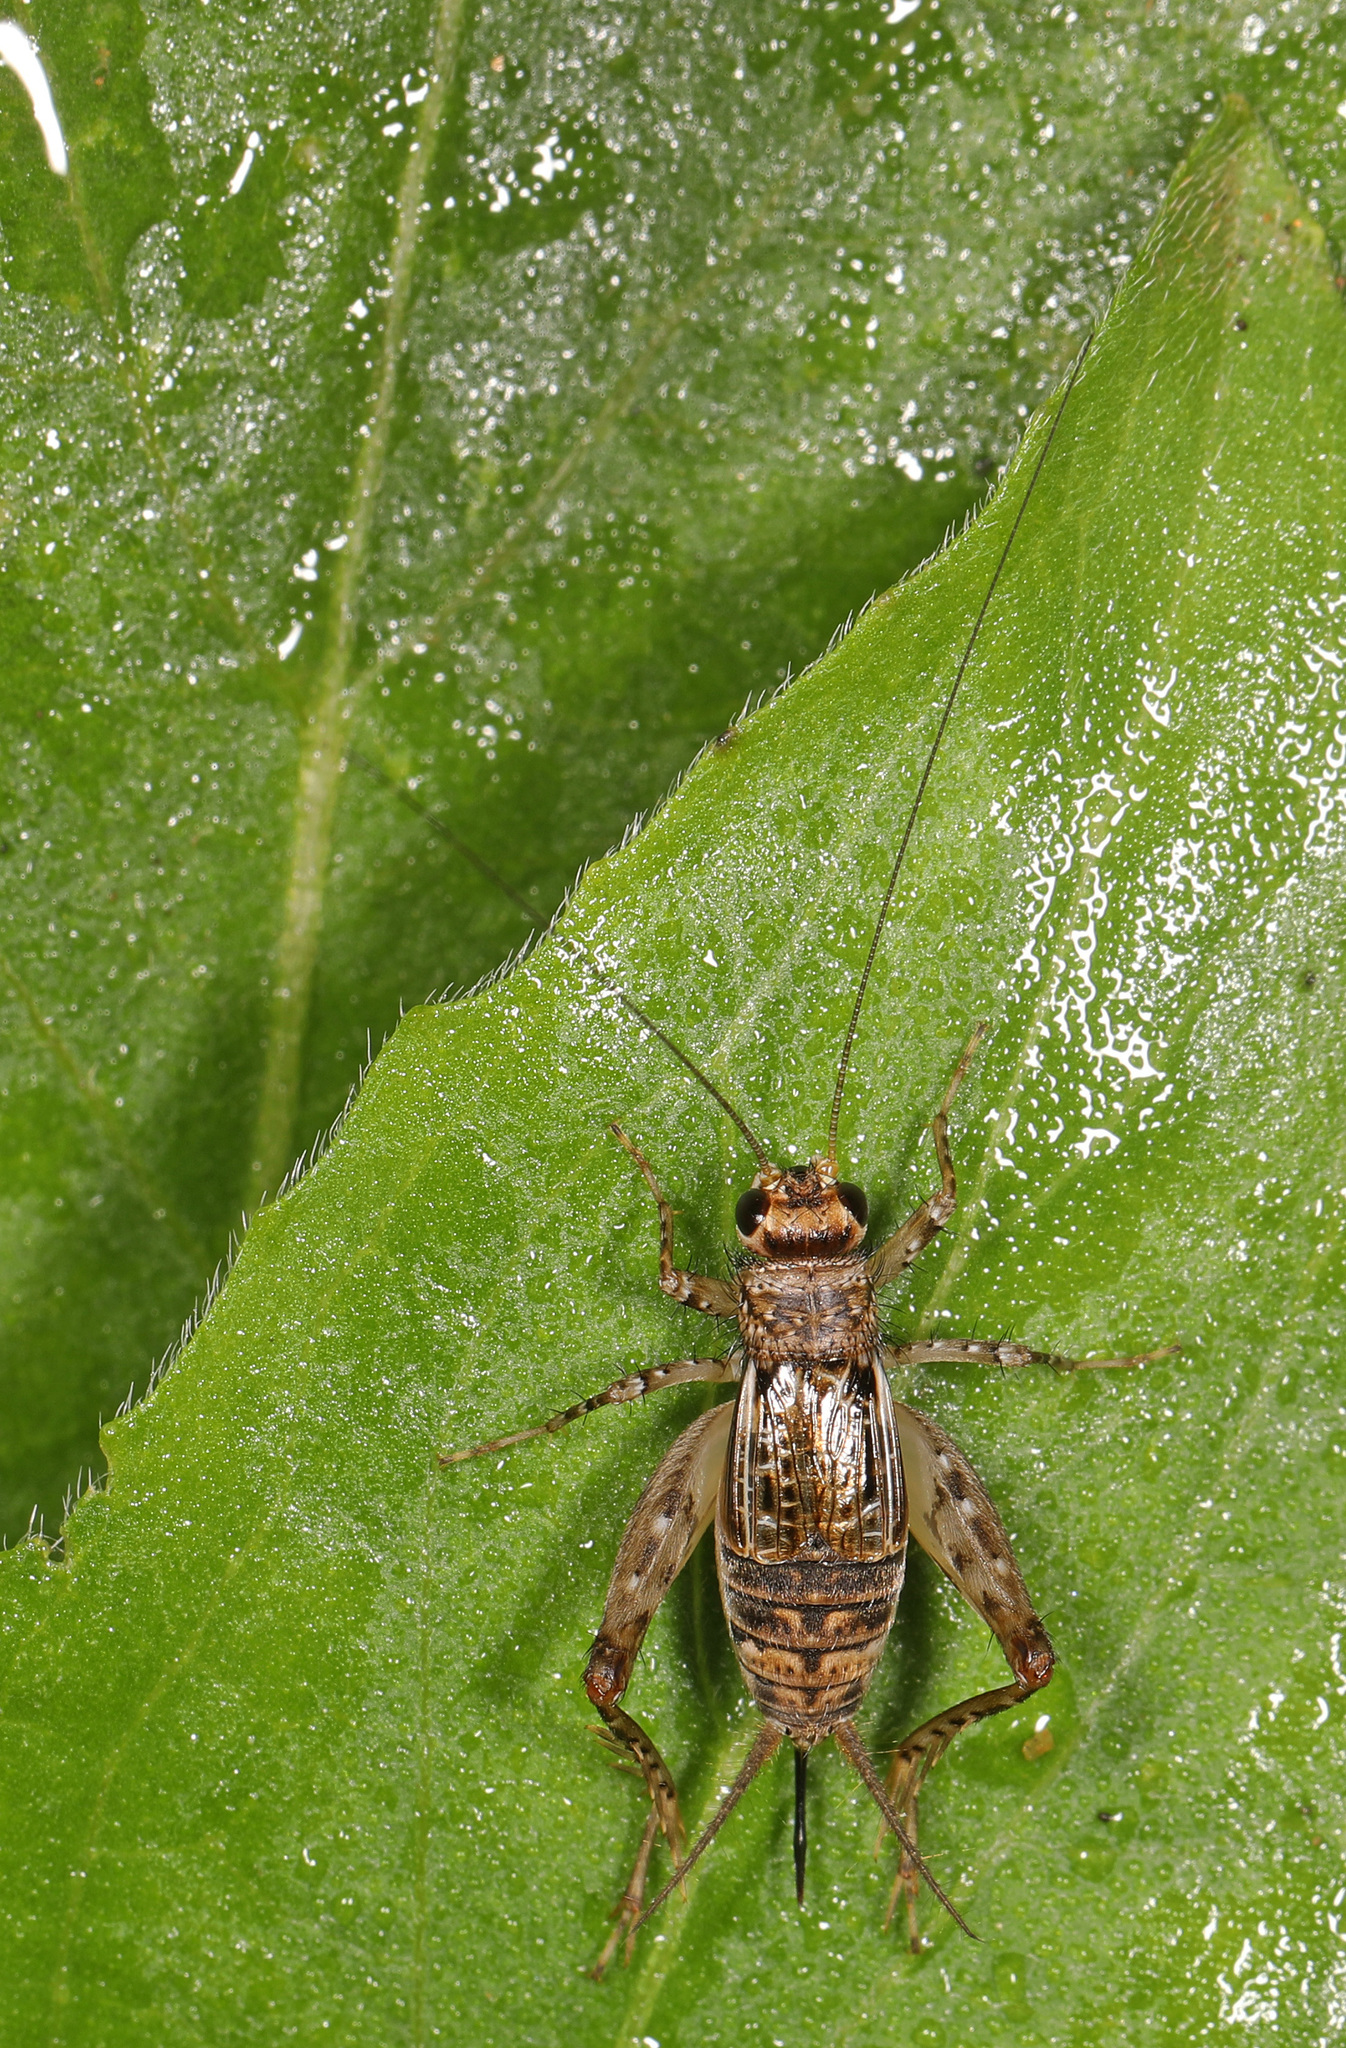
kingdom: Animalia
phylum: Arthropoda
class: Insecta
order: Orthoptera
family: Trigonidiidae
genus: Neonemobius
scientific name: Neonemobius variegatus
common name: Smaller spotted ground cricket
